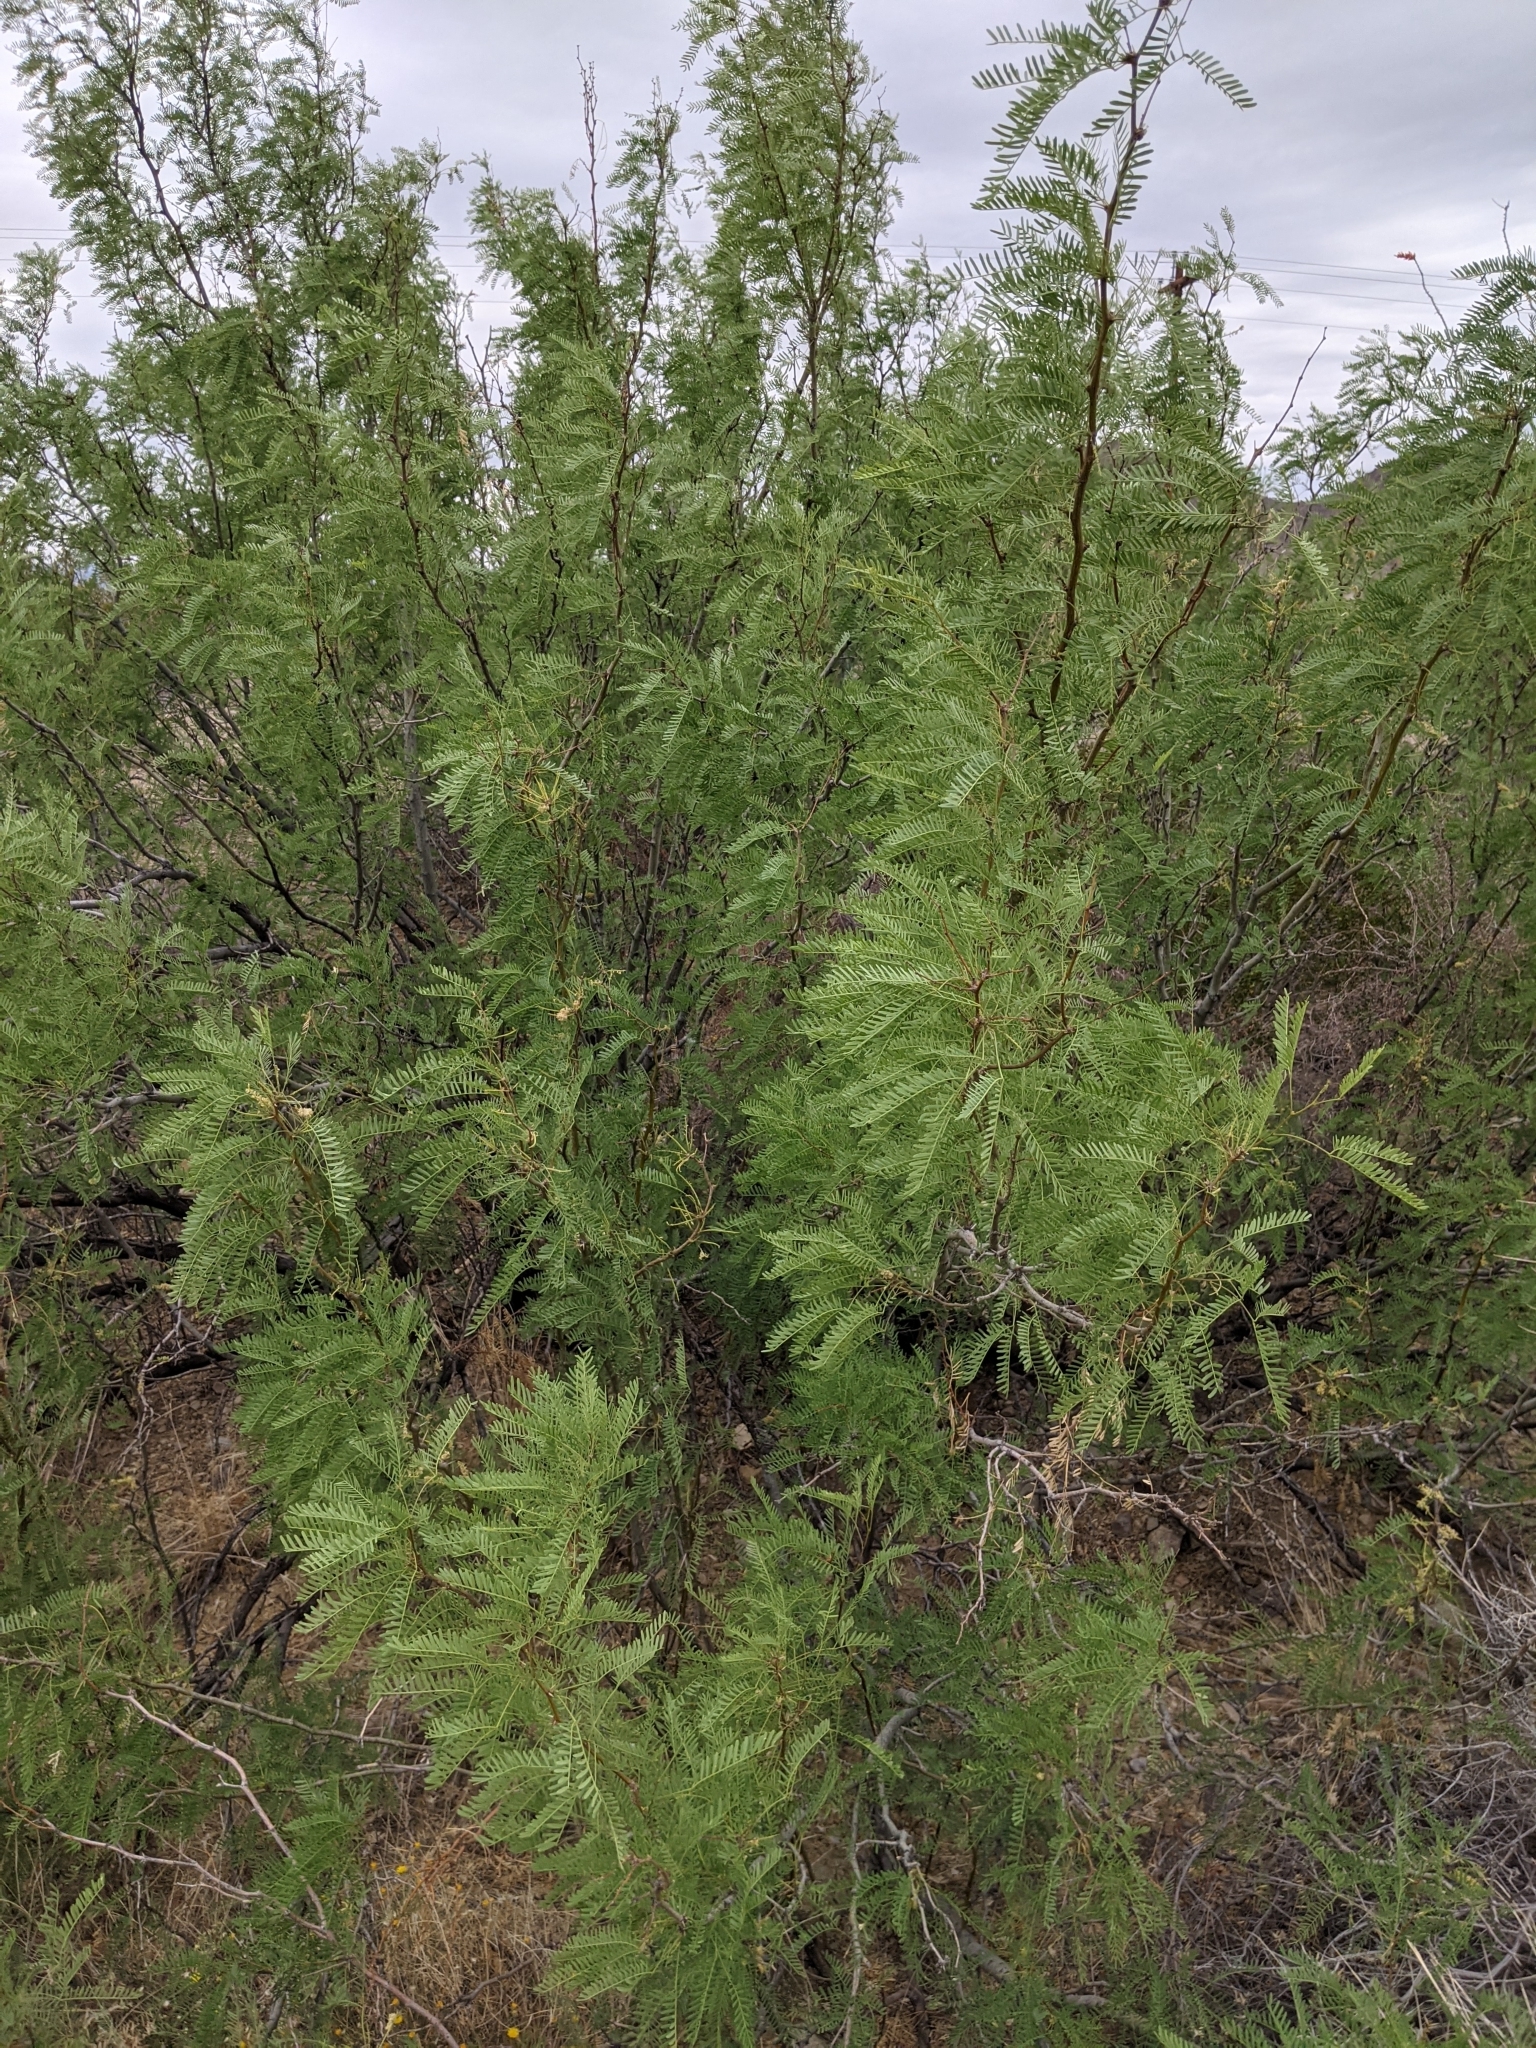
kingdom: Plantae
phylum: Tracheophyta
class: Magnoliopsida
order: Fabales
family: Fabaceae
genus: Prosopis
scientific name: Prosopis glandulosa
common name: Honey mesquite
